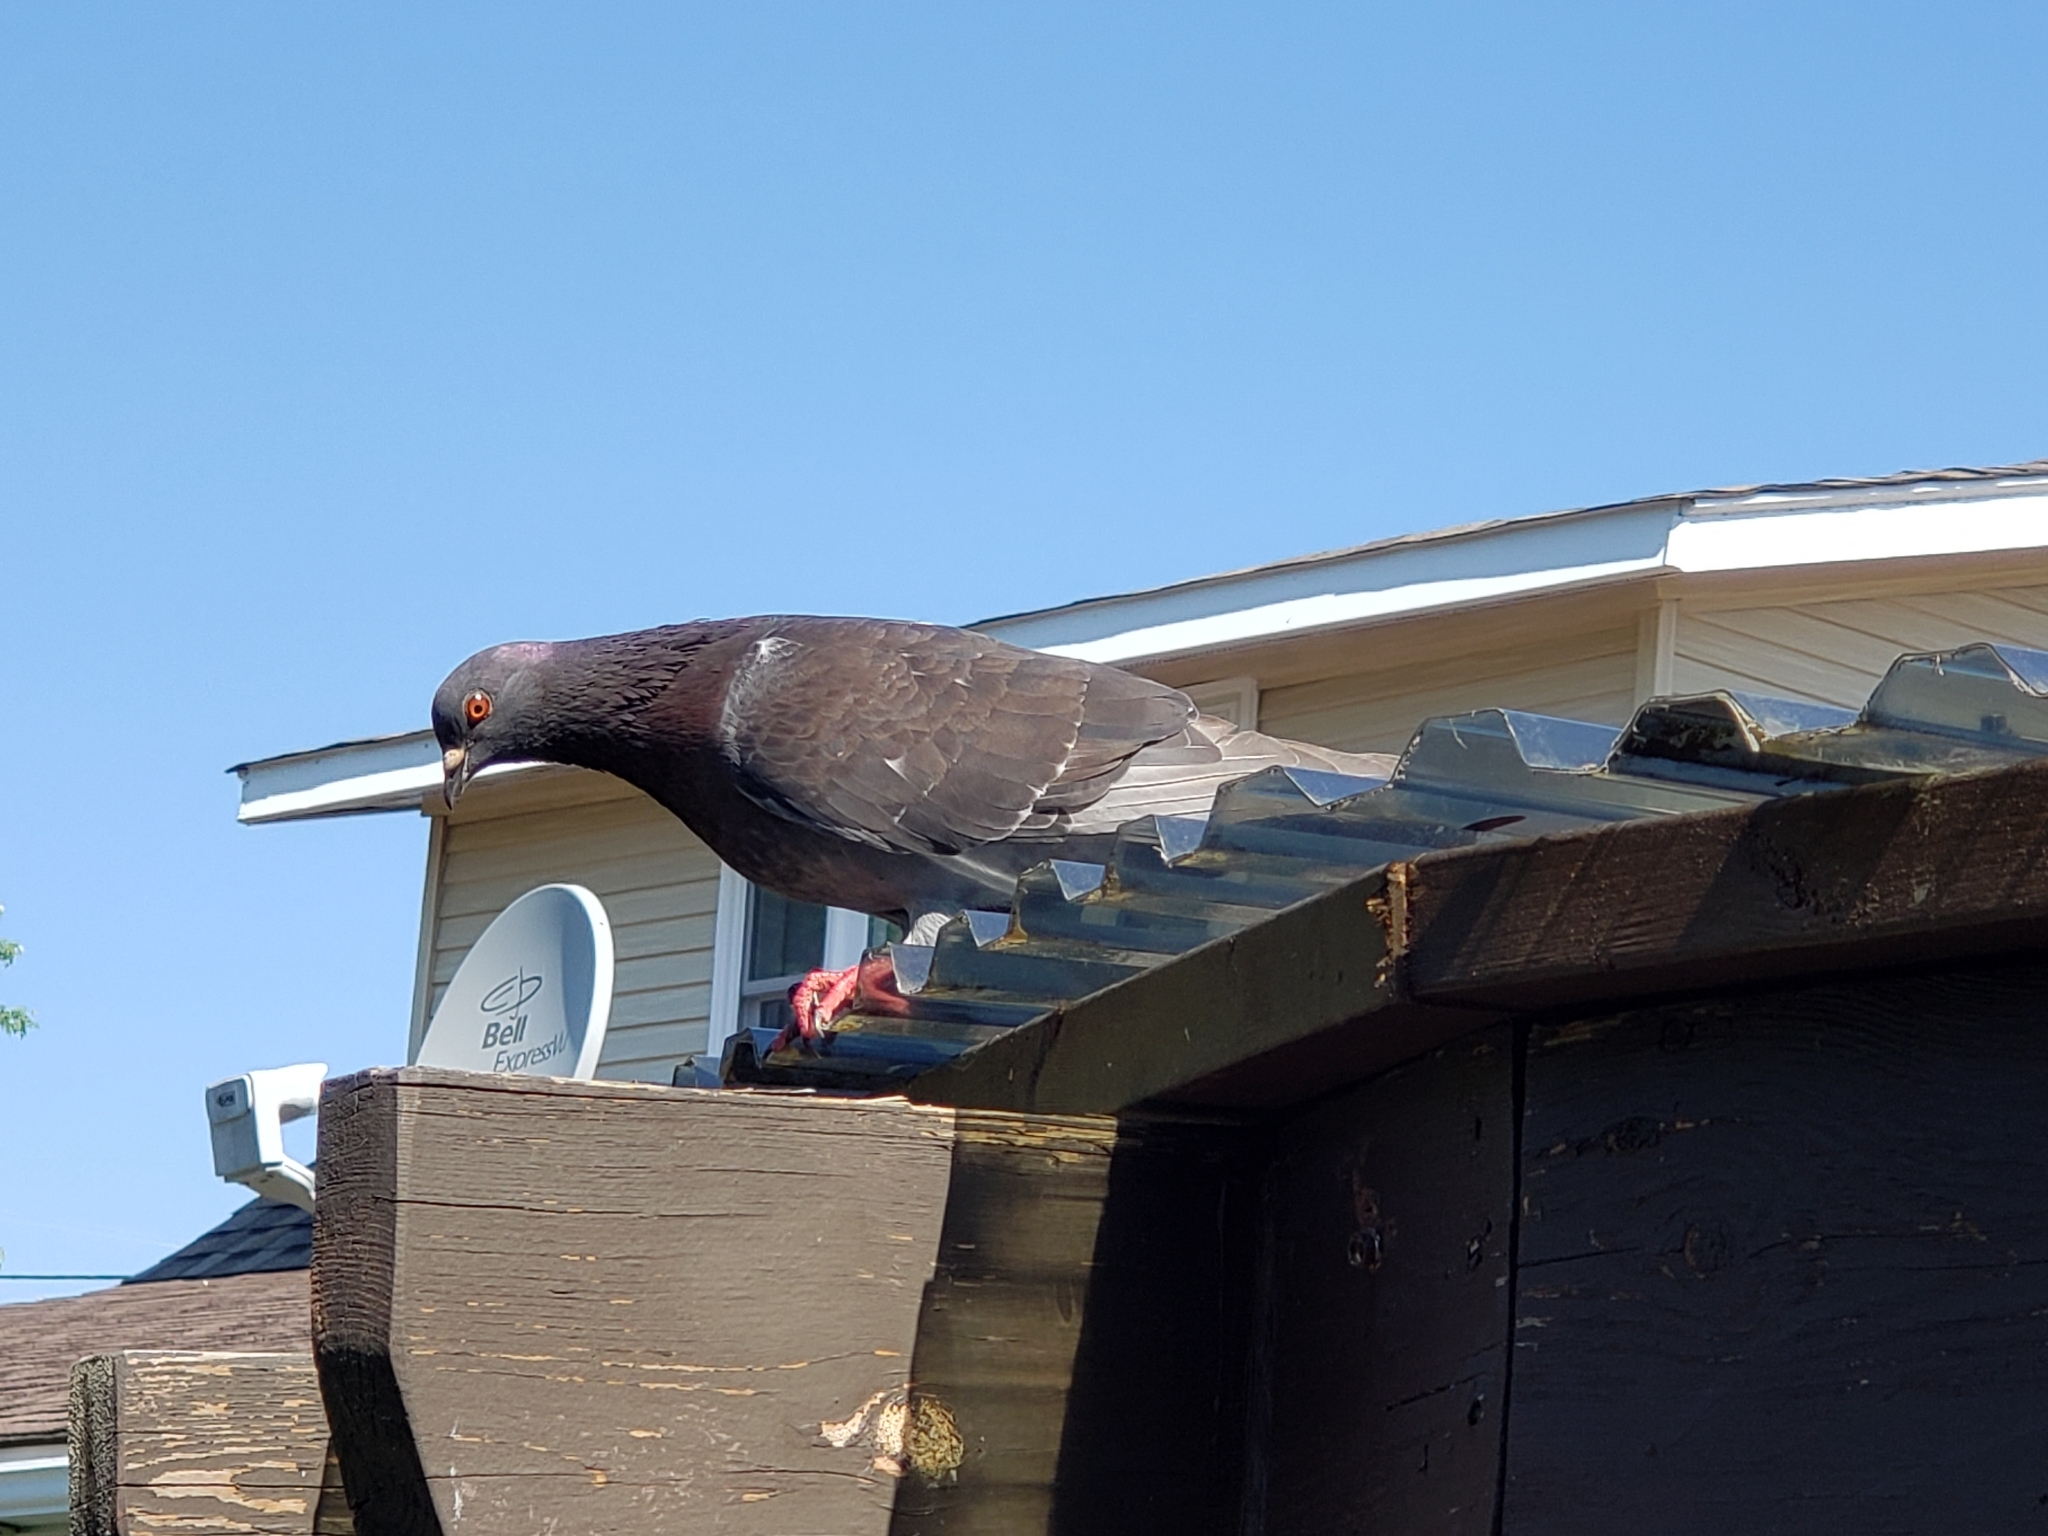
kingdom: Animalia
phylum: Chordata
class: Aves
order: Columbiformes
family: Columbidae
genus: Columba
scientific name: Columba livia
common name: Rock pigeon
